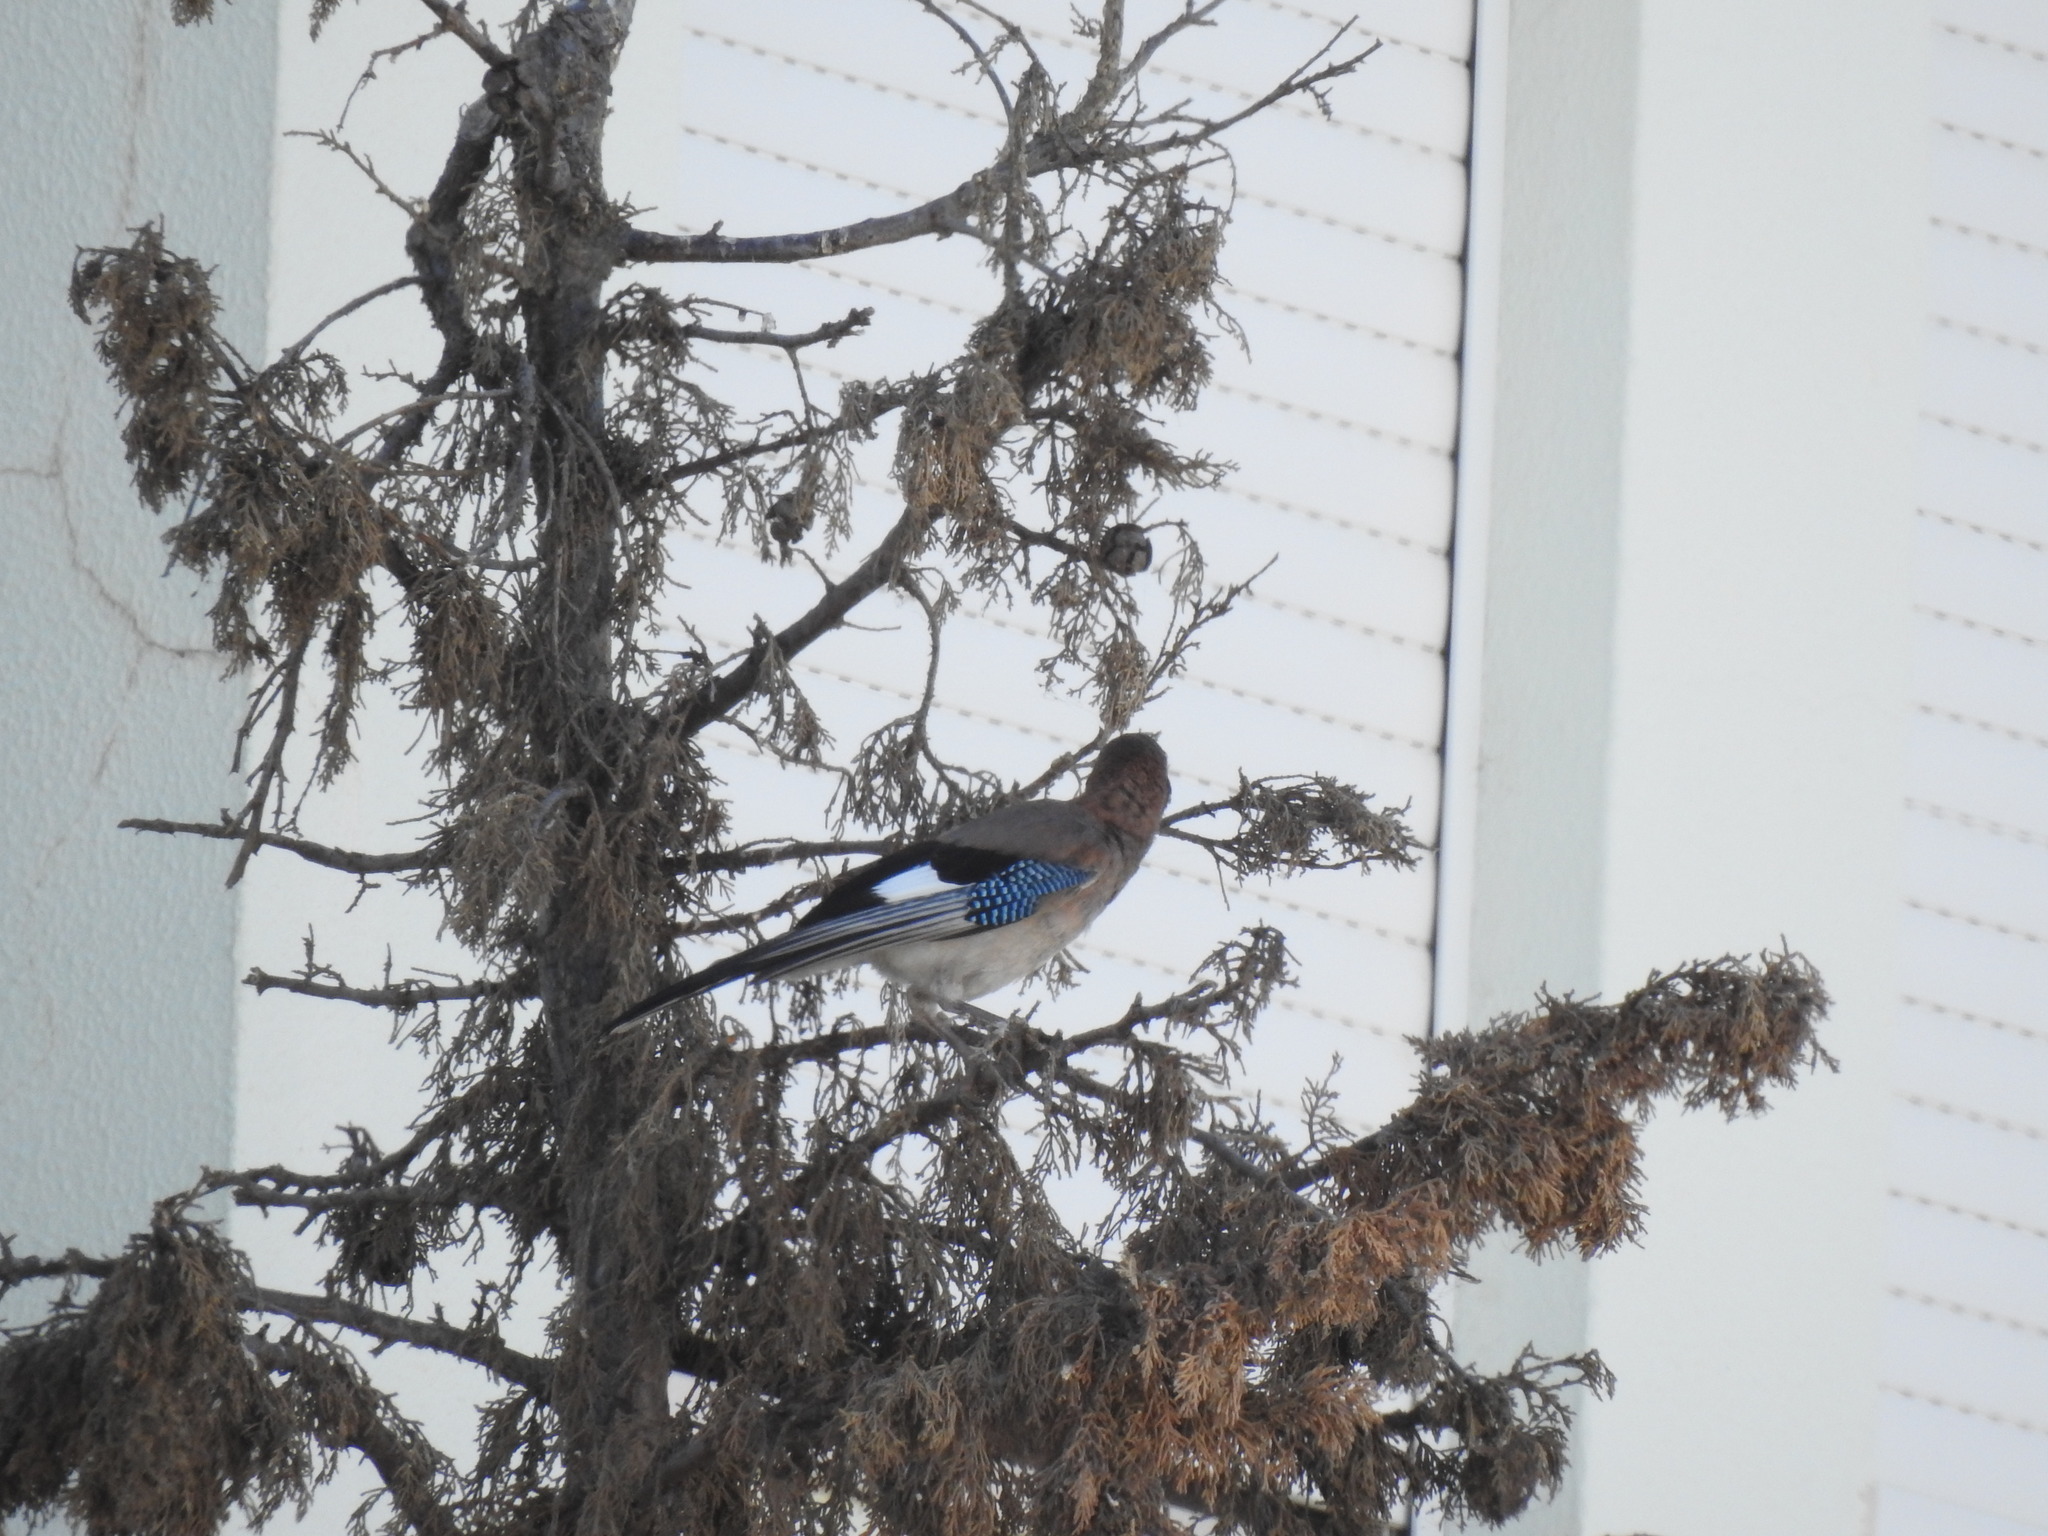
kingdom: Animalia
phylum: Chordata
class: Aves
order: Passeriformes
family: Corvidae
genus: Garrulus
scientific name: Garrulus glandarius
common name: Eurasian jay
